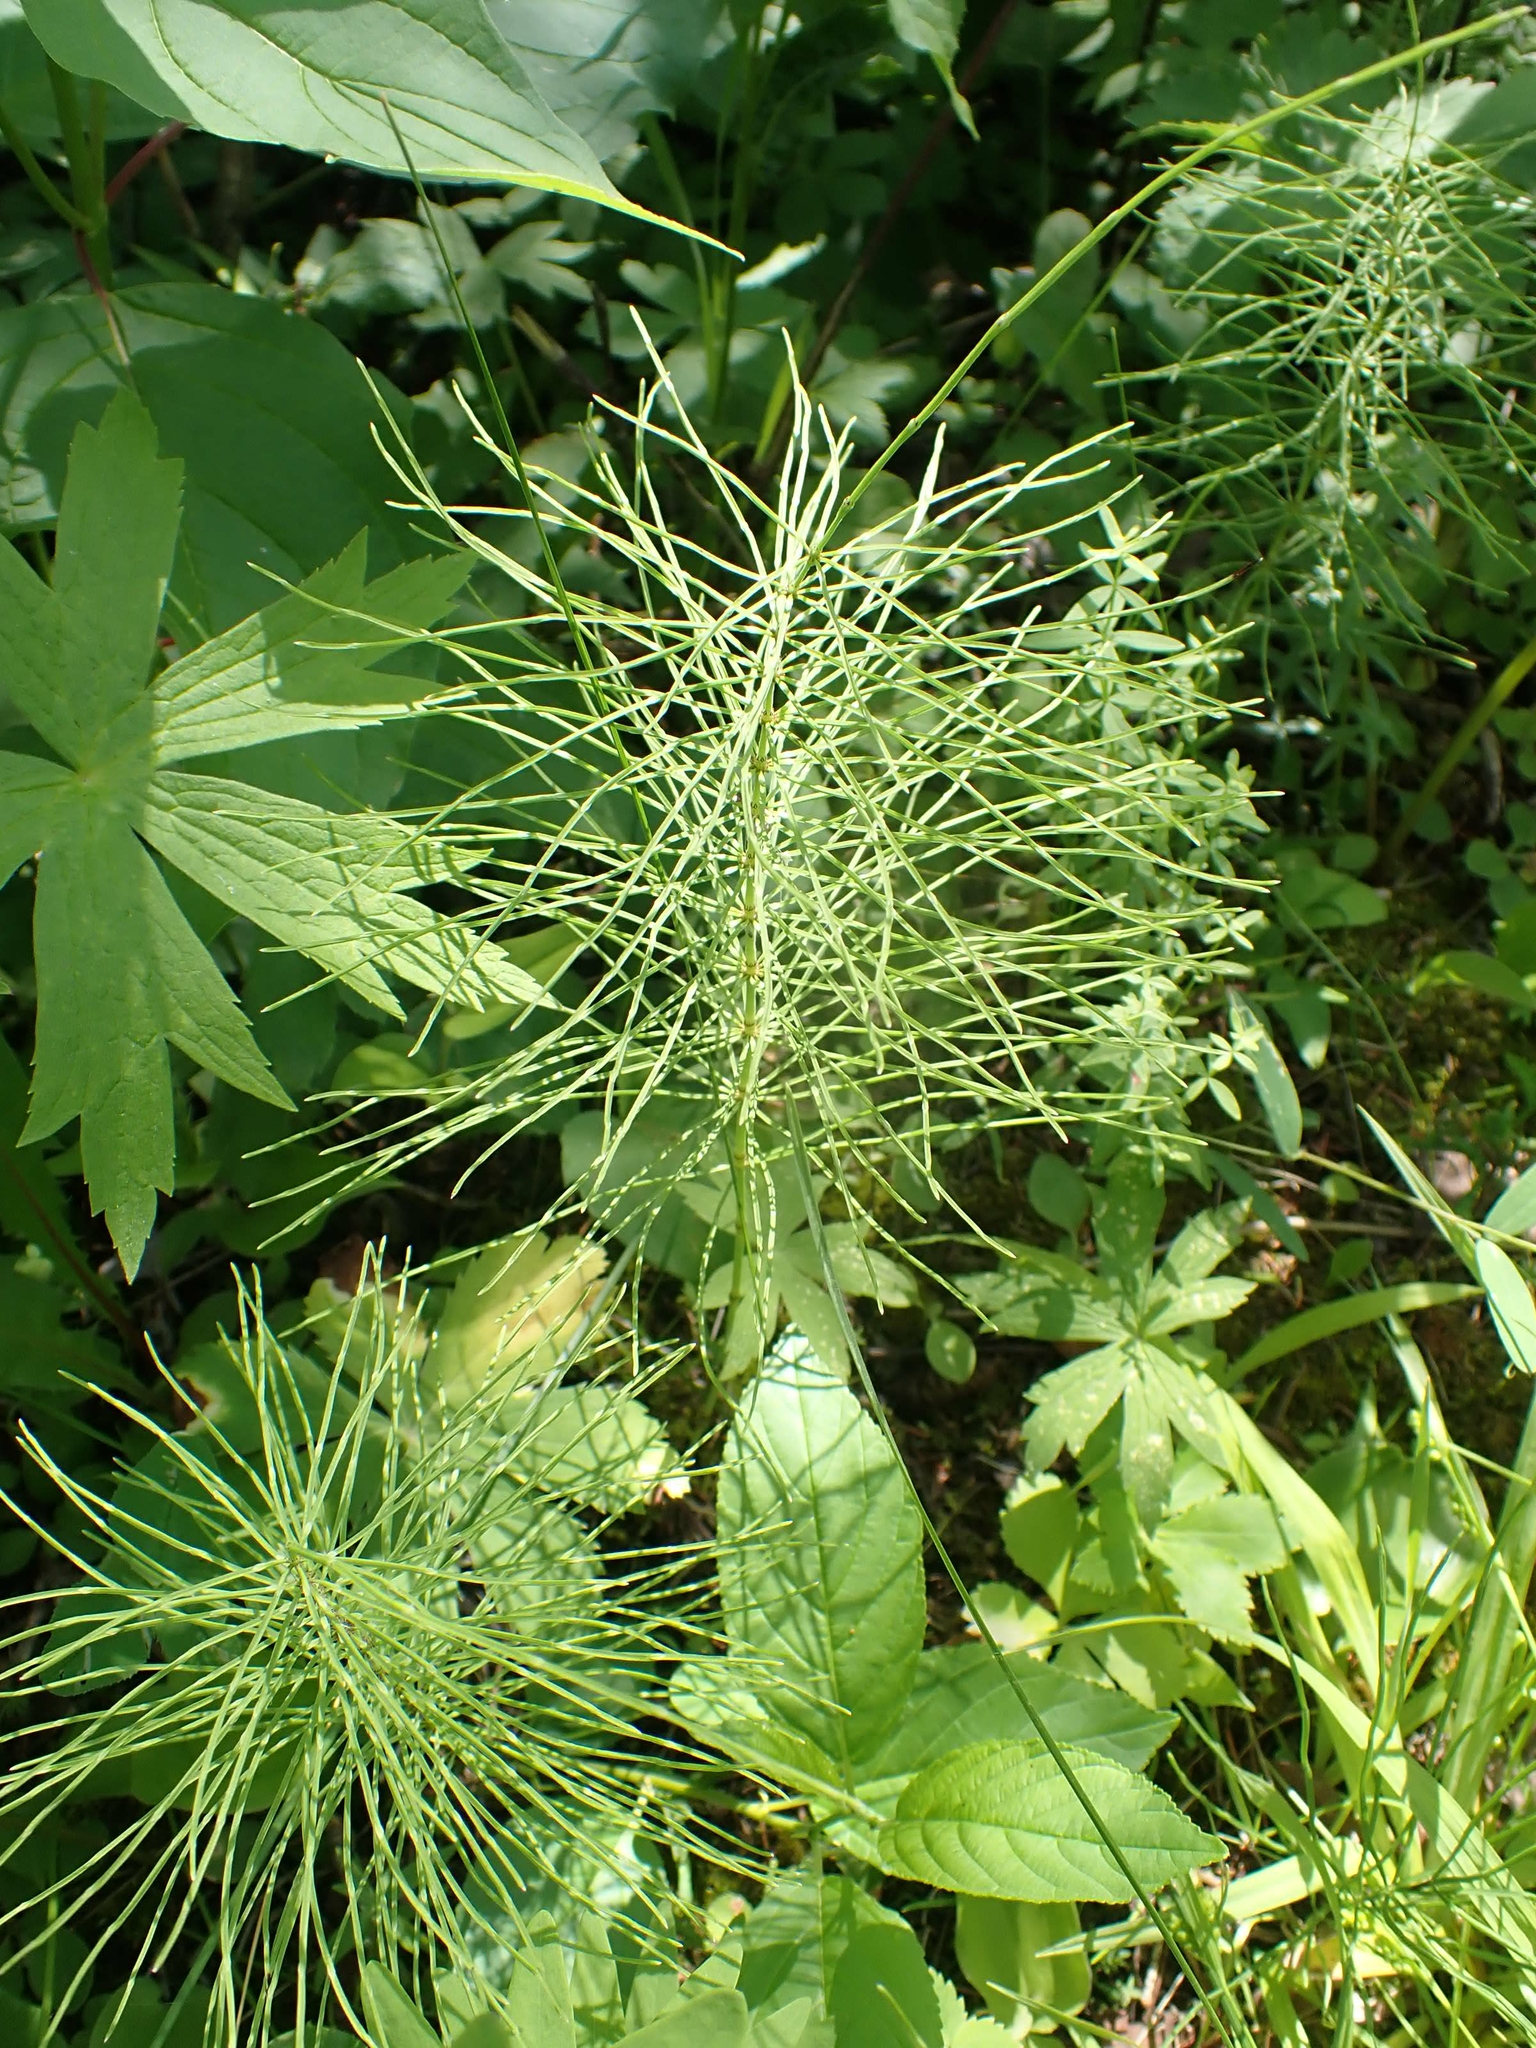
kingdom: Plantae
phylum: Tracheophyta
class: Polypodiopsida
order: Equisetales
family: Equisetaceae
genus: Equisetum
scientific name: Equisetum pratense
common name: Meadow horsetail
